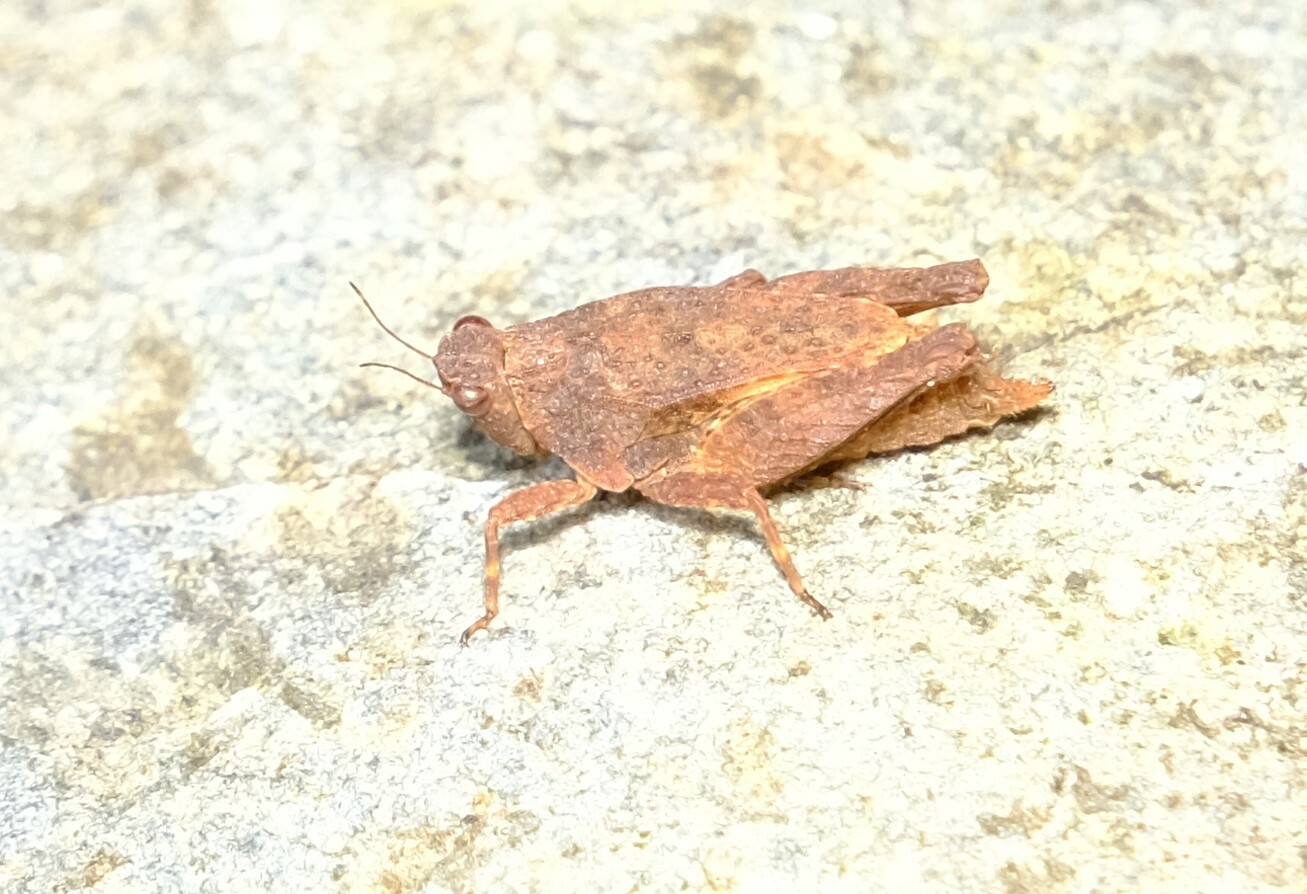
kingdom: Animalia
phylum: Arthropoda
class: Insecta
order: Orthoptera
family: Tetrigidae
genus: Tetrix
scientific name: Tetrix irrupta
